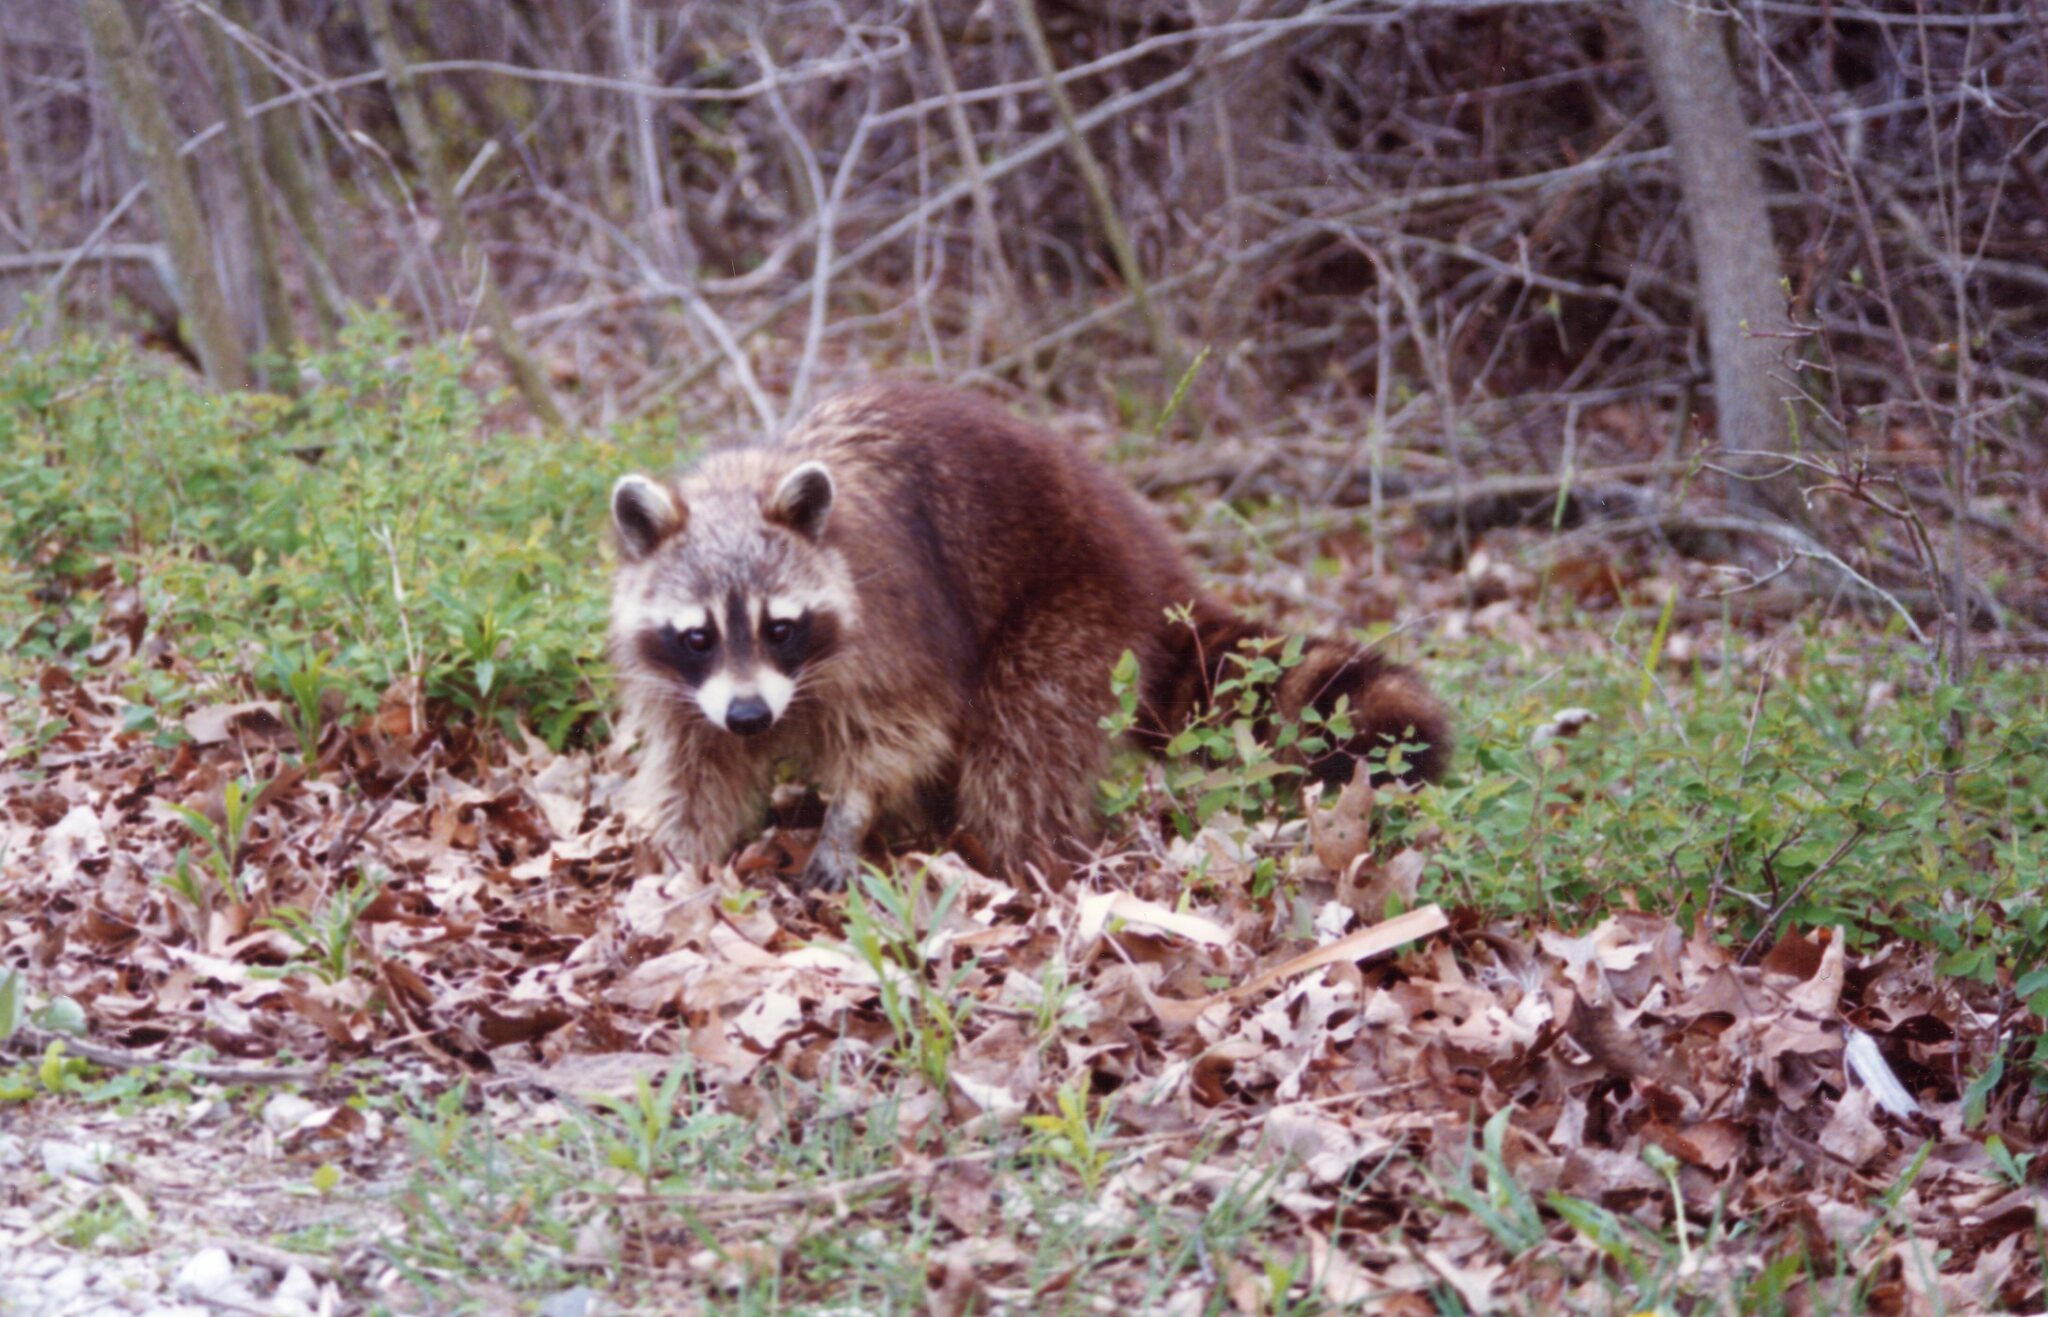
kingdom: Animalia
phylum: Chordata
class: Mammalia
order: Carnivora
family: Procyonidae
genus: Procyon
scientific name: Procyon lotor
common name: Raccoon
